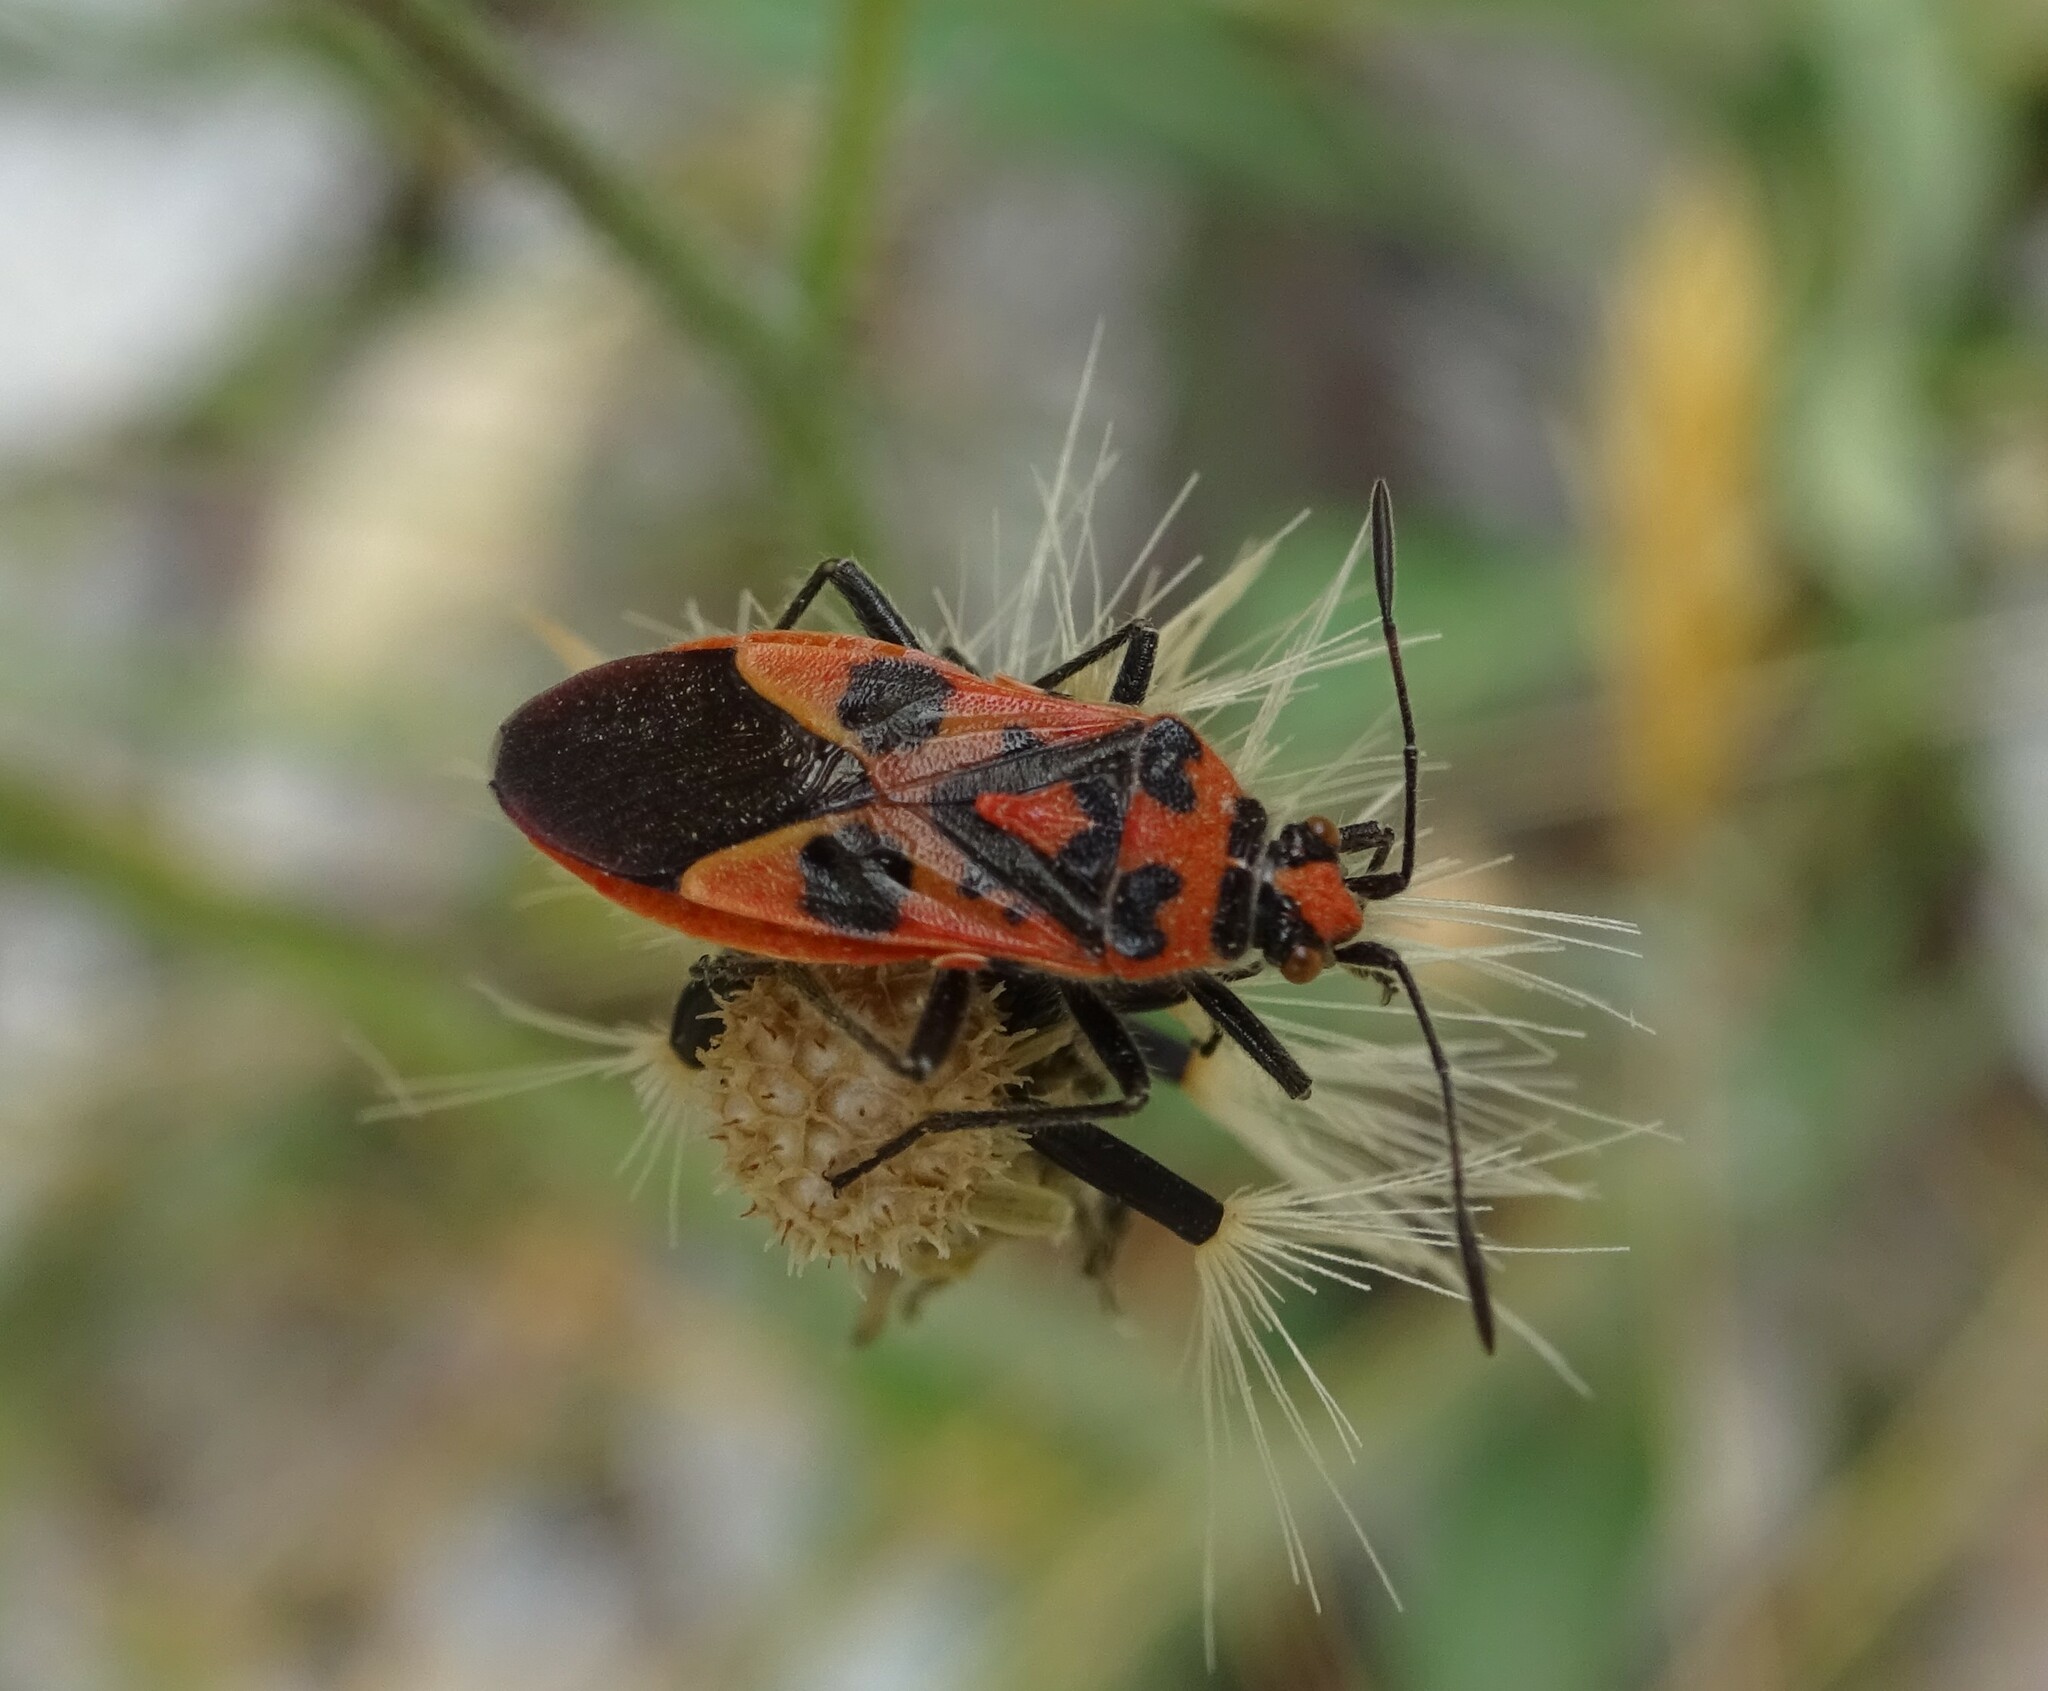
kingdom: Animalia
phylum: Arthropoda
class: Insecta
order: Hemiptera
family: Rhopalidae
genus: Corizus
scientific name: Corizus hyoscyami
